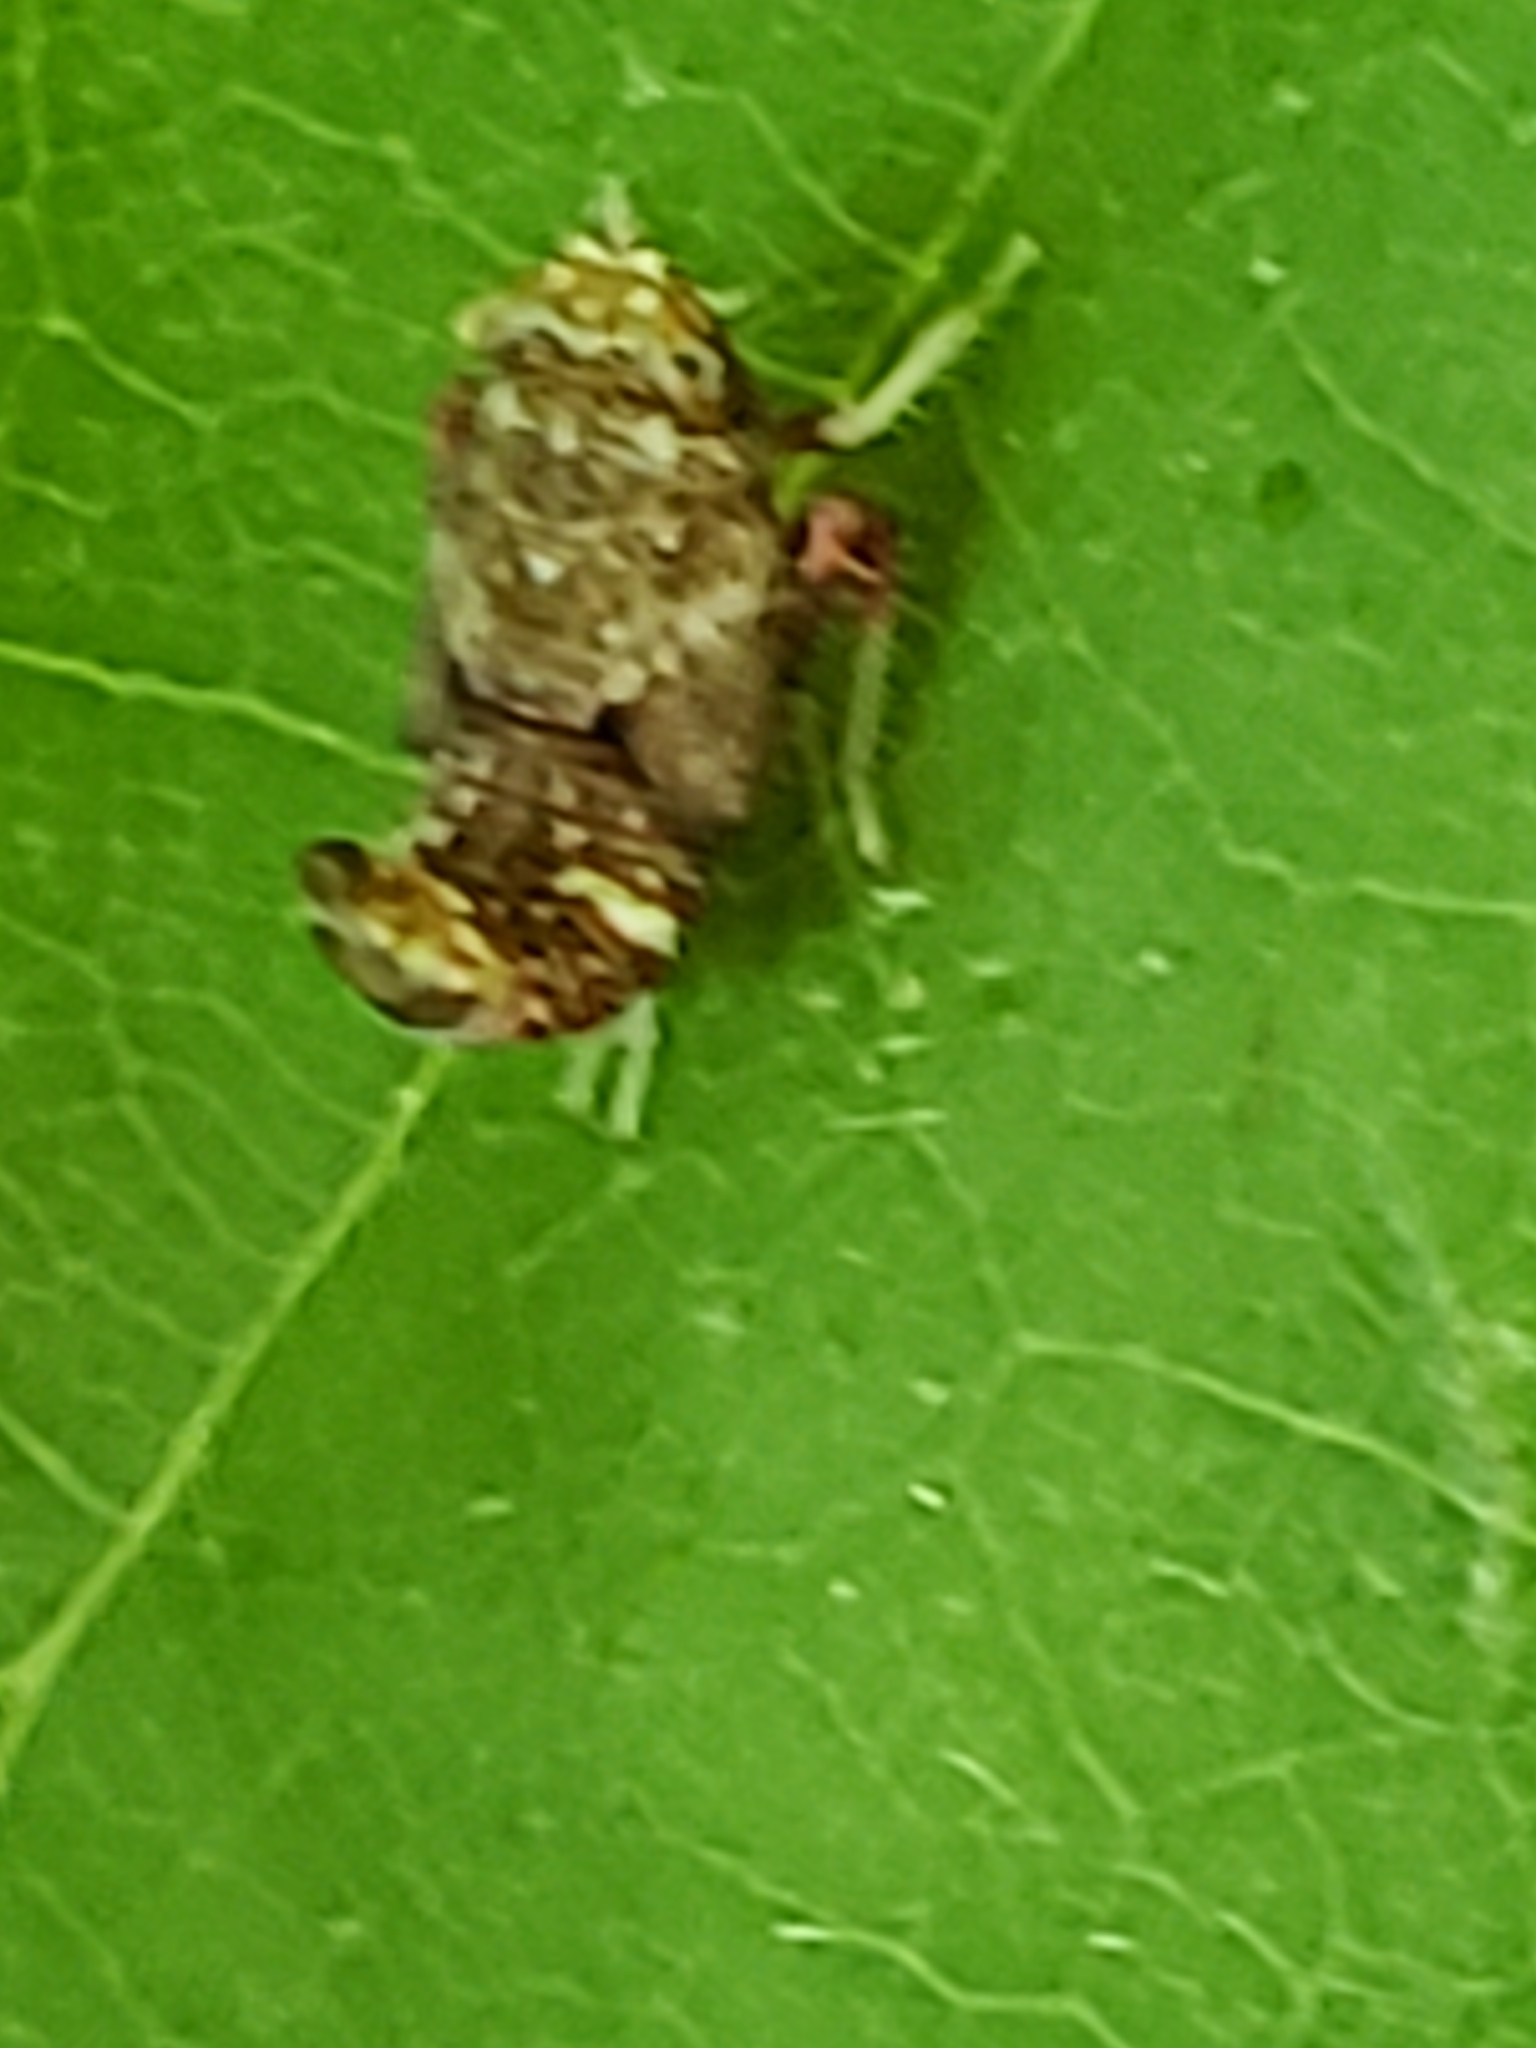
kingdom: Animalia
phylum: Arthropoda
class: Insecta
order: Hemiptera
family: Cicadellidae
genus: Orientus
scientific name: Orientus ishidae
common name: Japanese leafhopper
